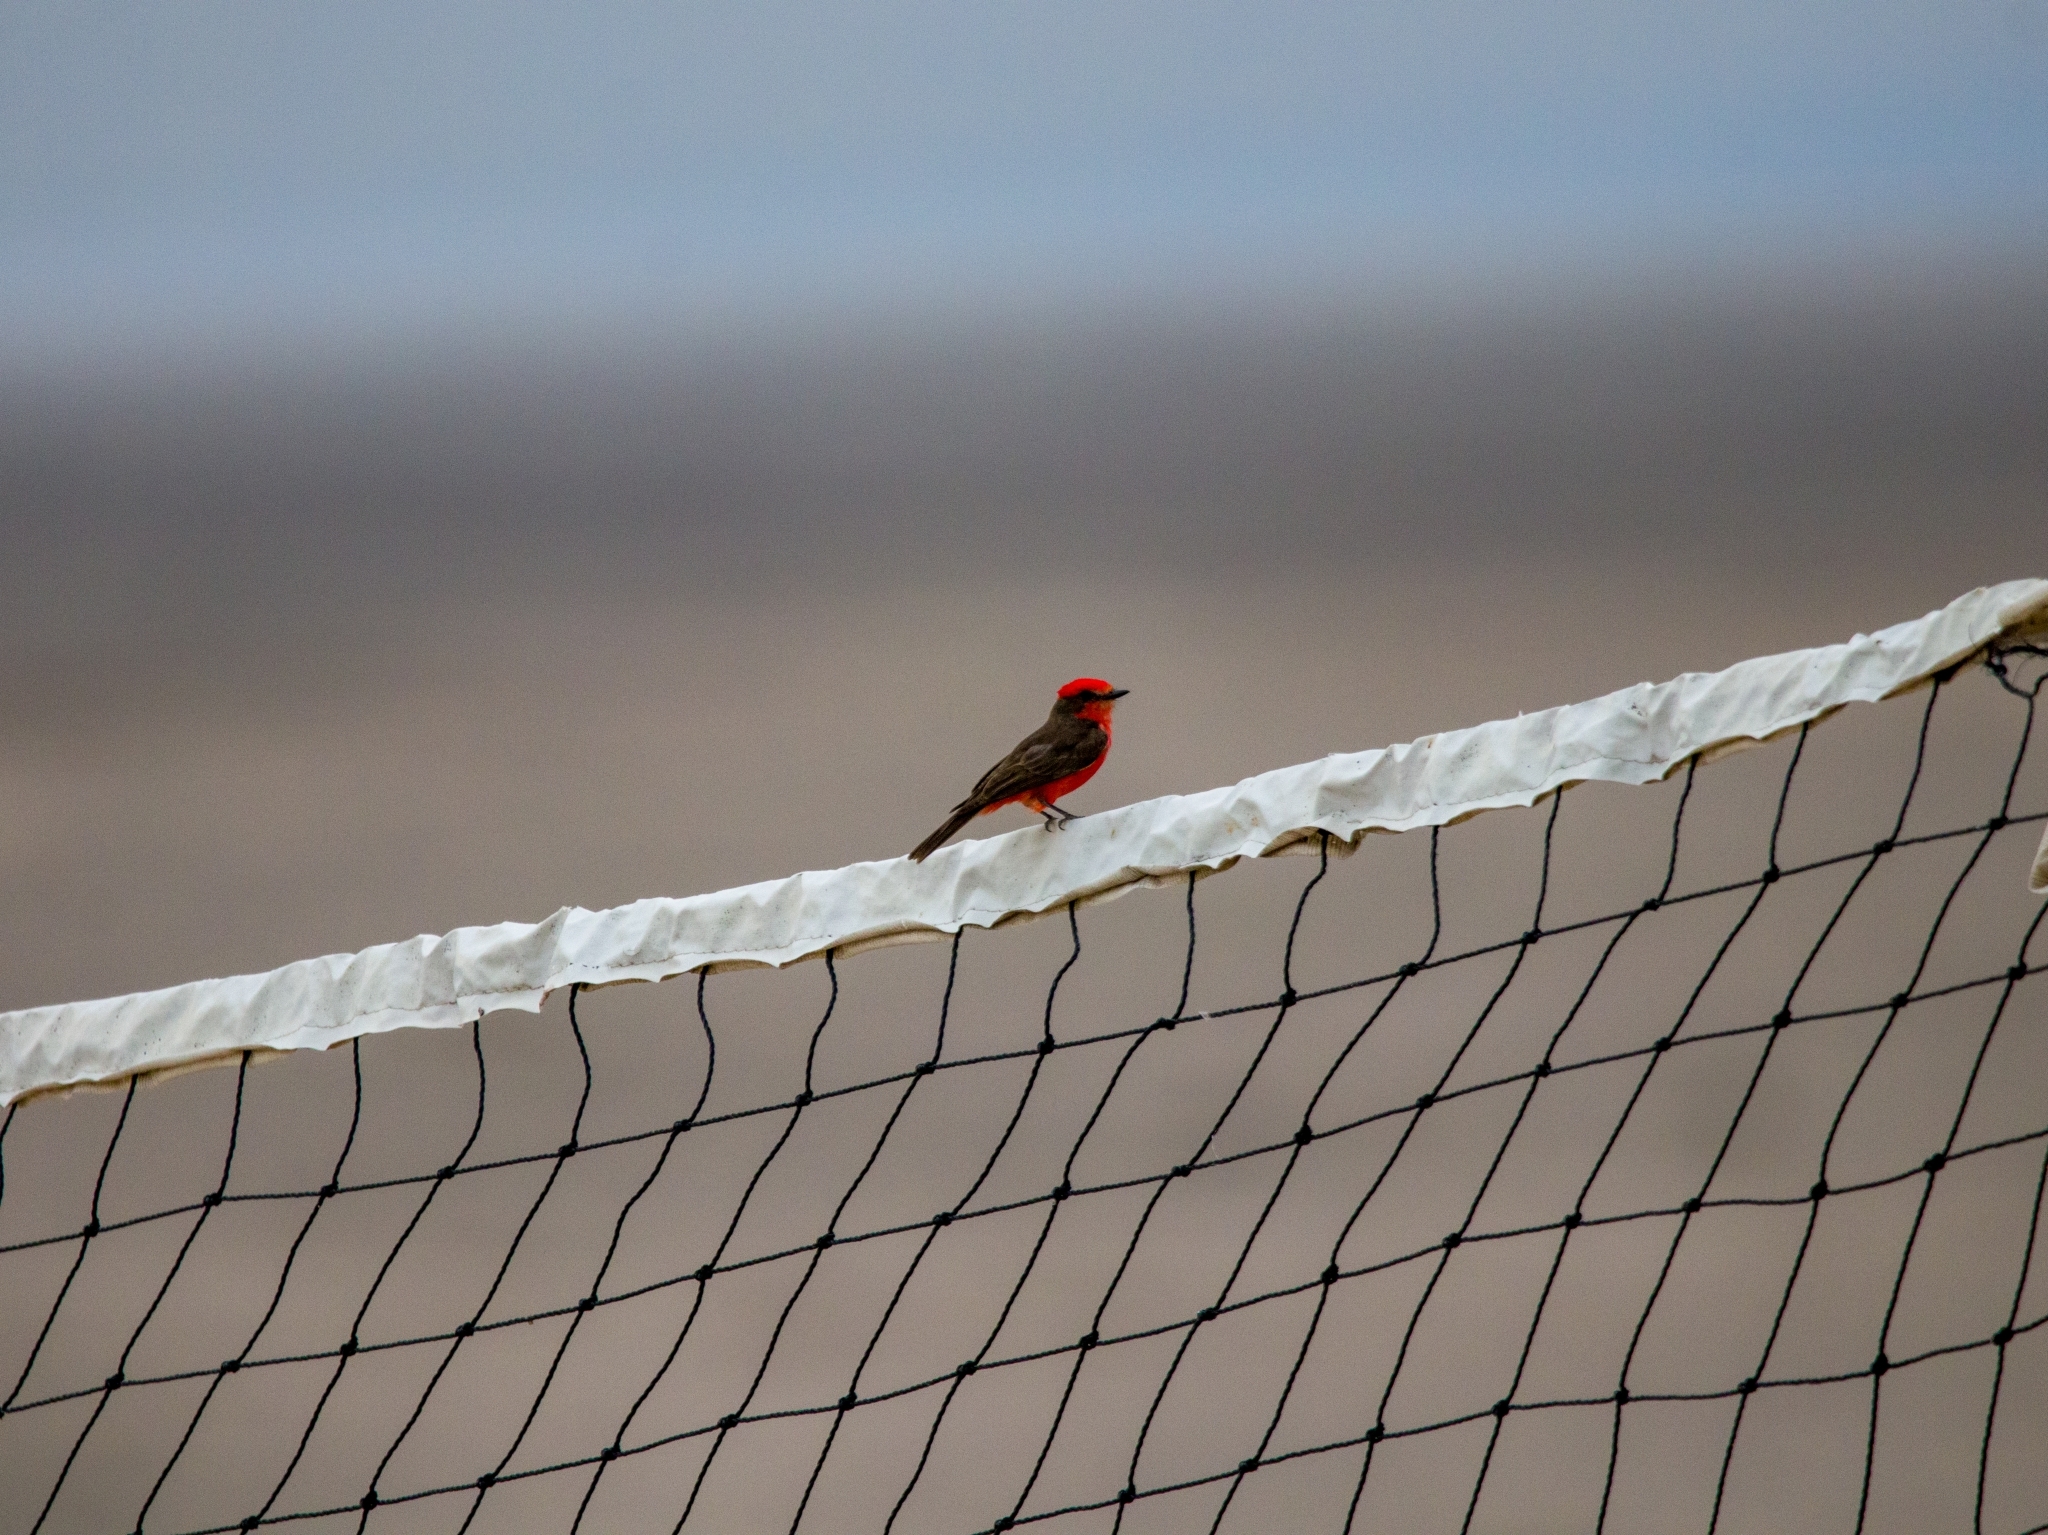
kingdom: Animalia
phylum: Chordata
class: Aves
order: Passeriformes
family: Tyrannidae
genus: Pyrocephalus
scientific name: Pyrocephalus rubinus
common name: Vermilion flycatcher
